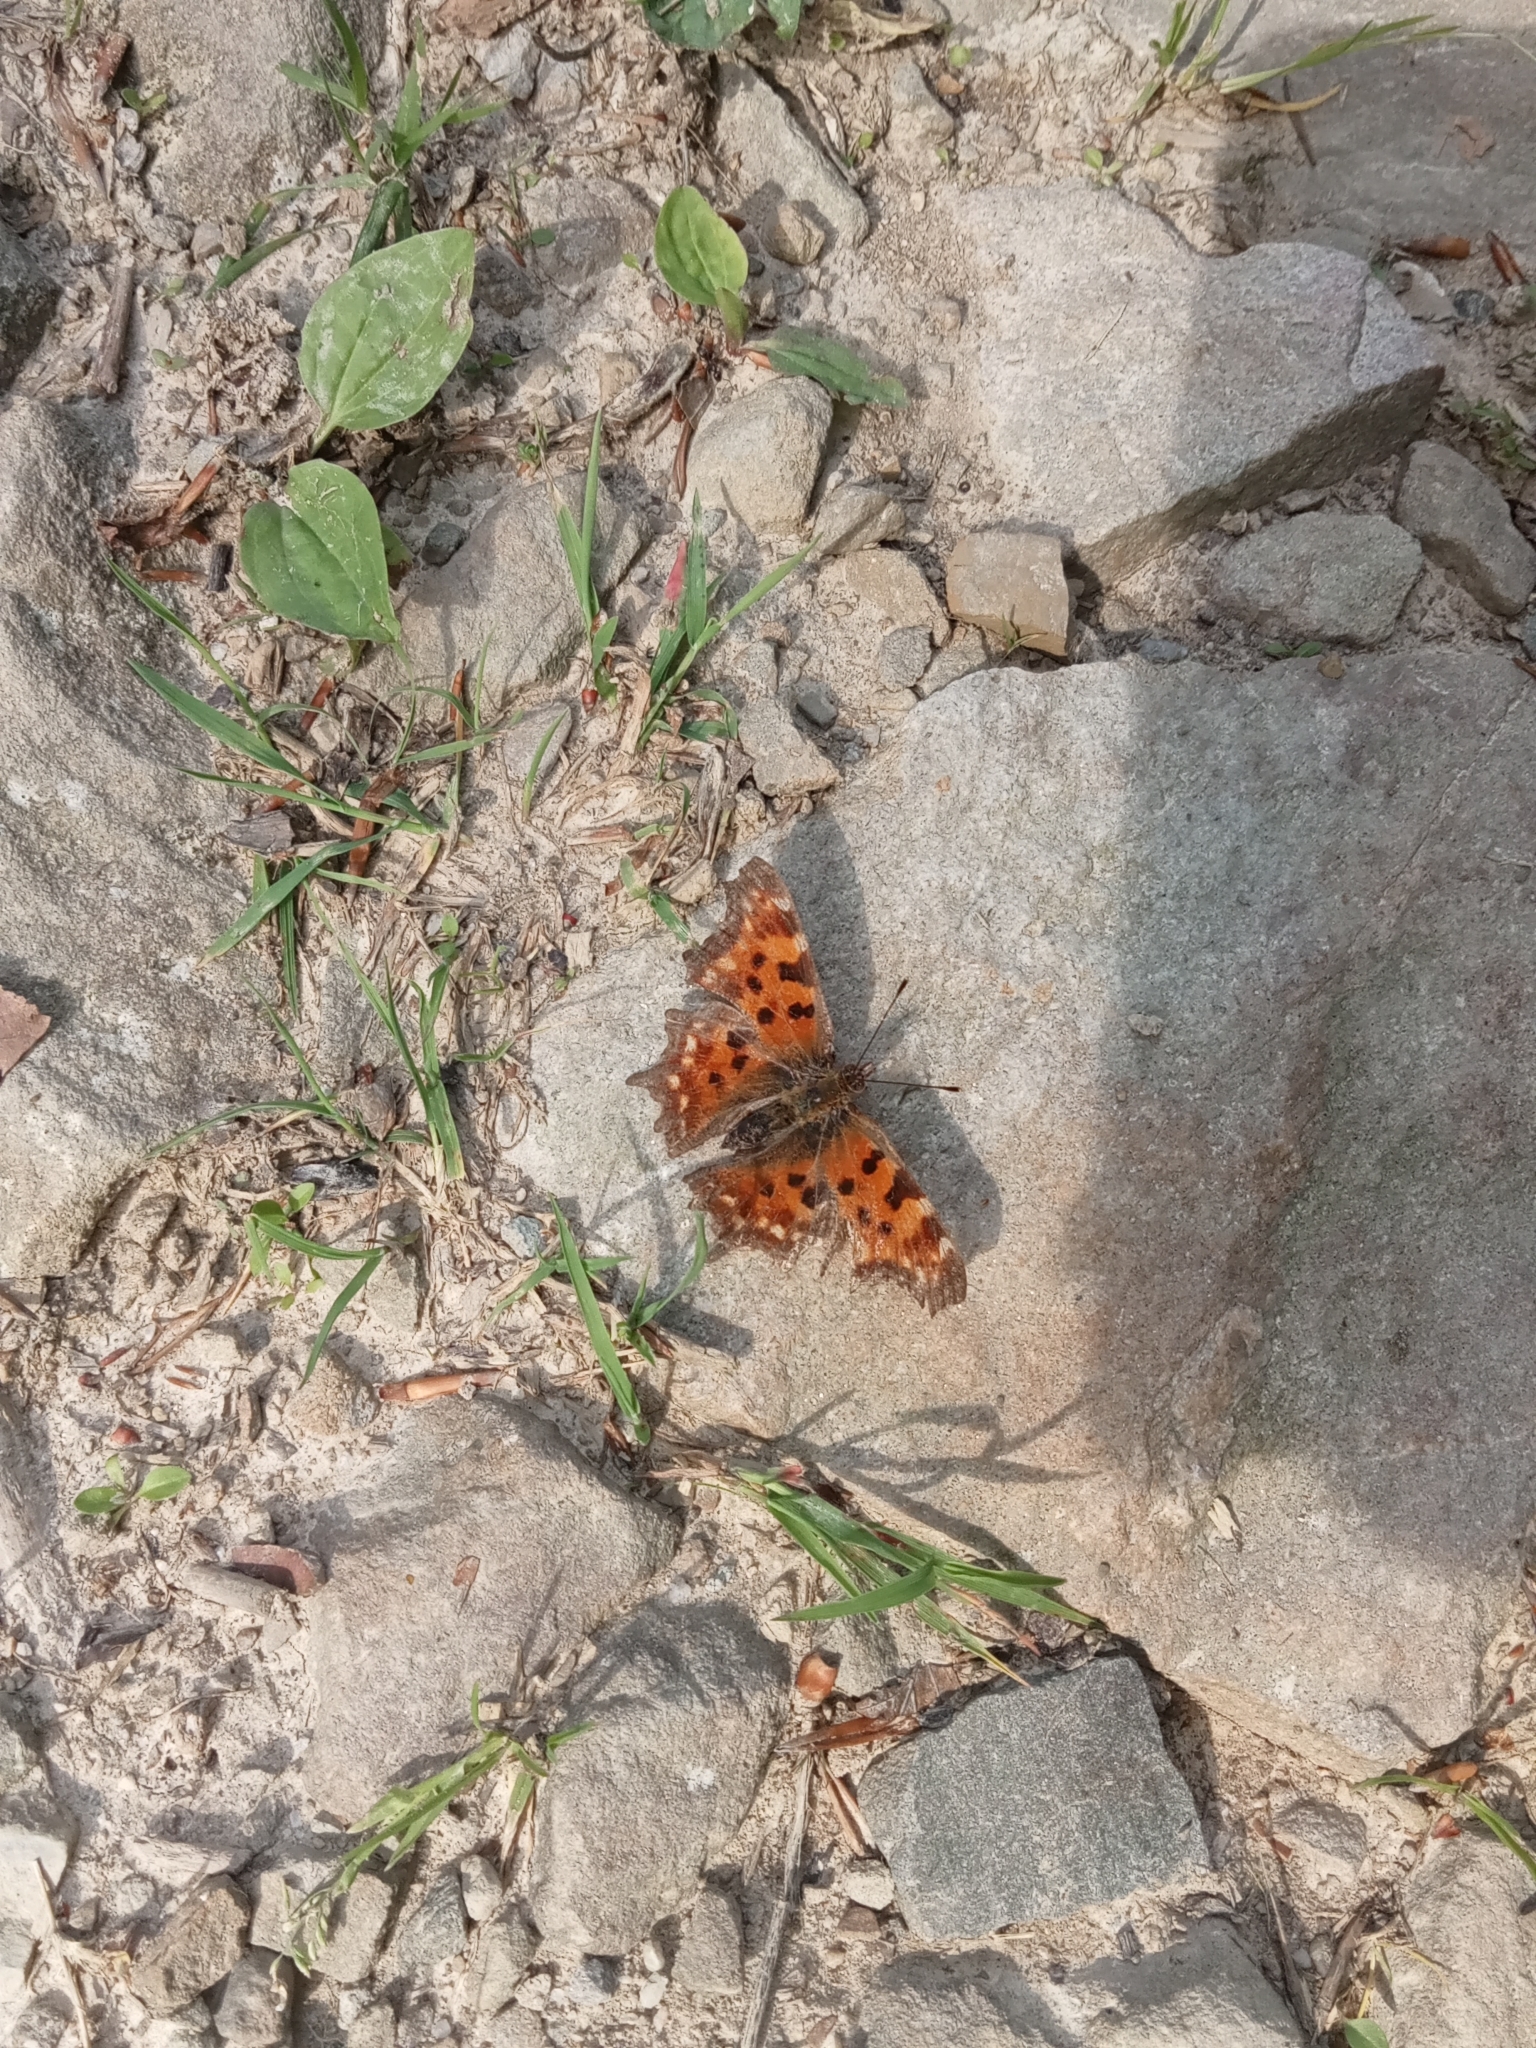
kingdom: Animalia
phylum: Arthropoda
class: Insecta
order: Lepidoptera
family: Nymphalidae
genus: Polygonia
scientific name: Polygonia c-album
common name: Comma
